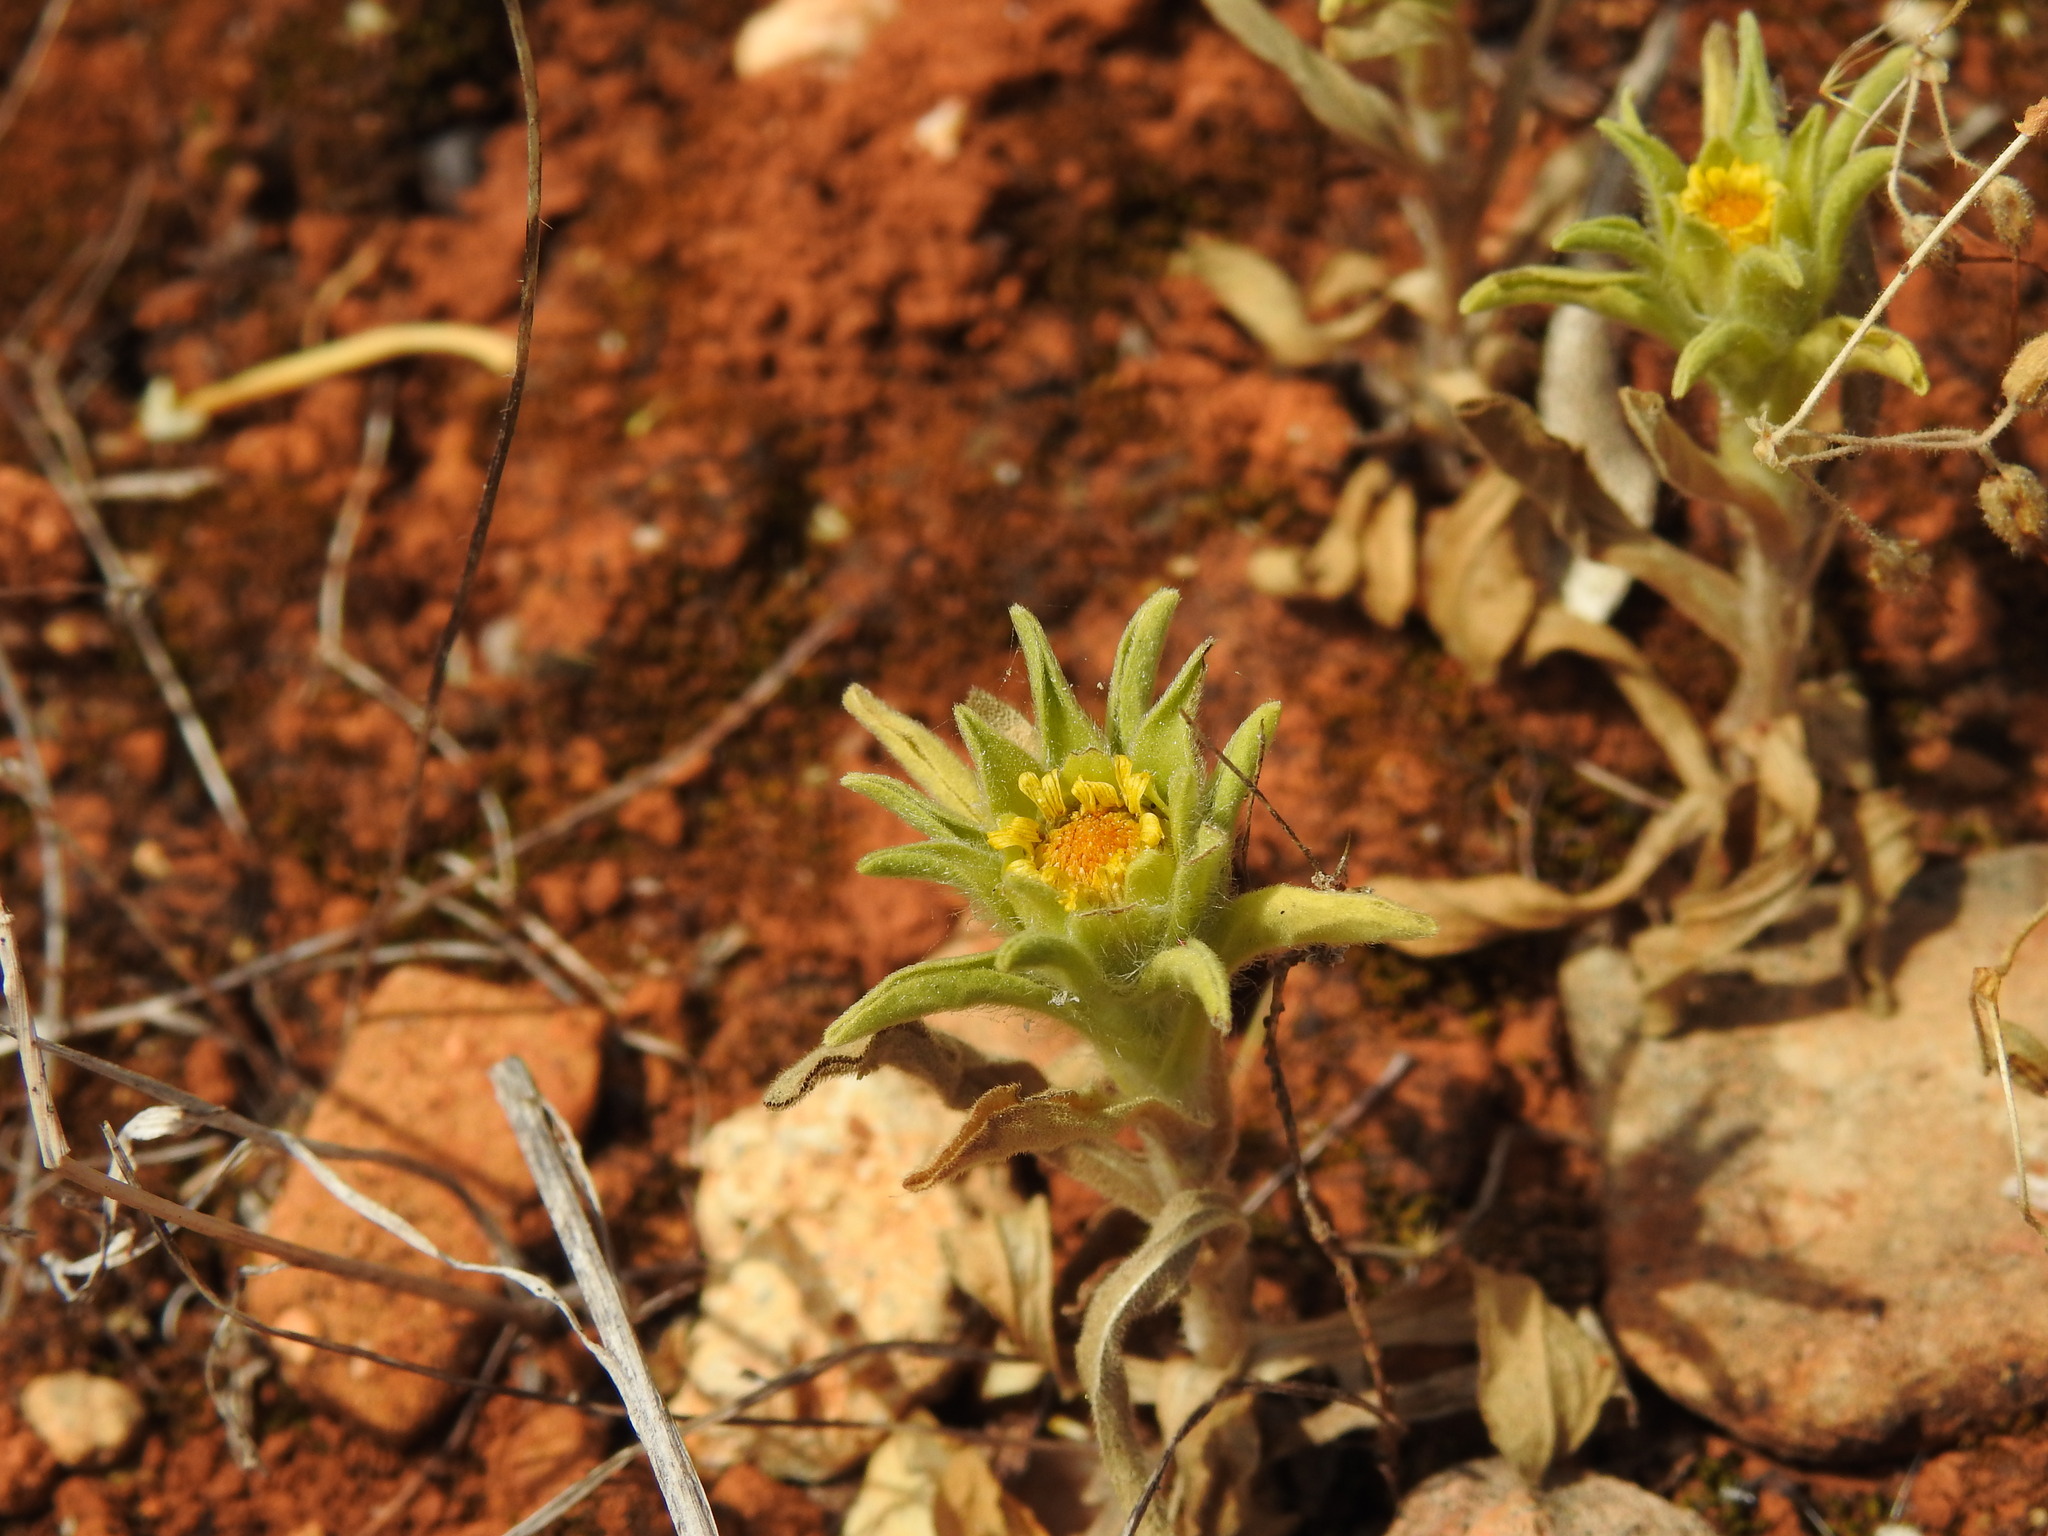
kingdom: Plantae
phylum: Tracheophyta
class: Magnoliopsida
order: Asterales
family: Asteraceae
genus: Asteriscus
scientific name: Asteriscus aquaticus
